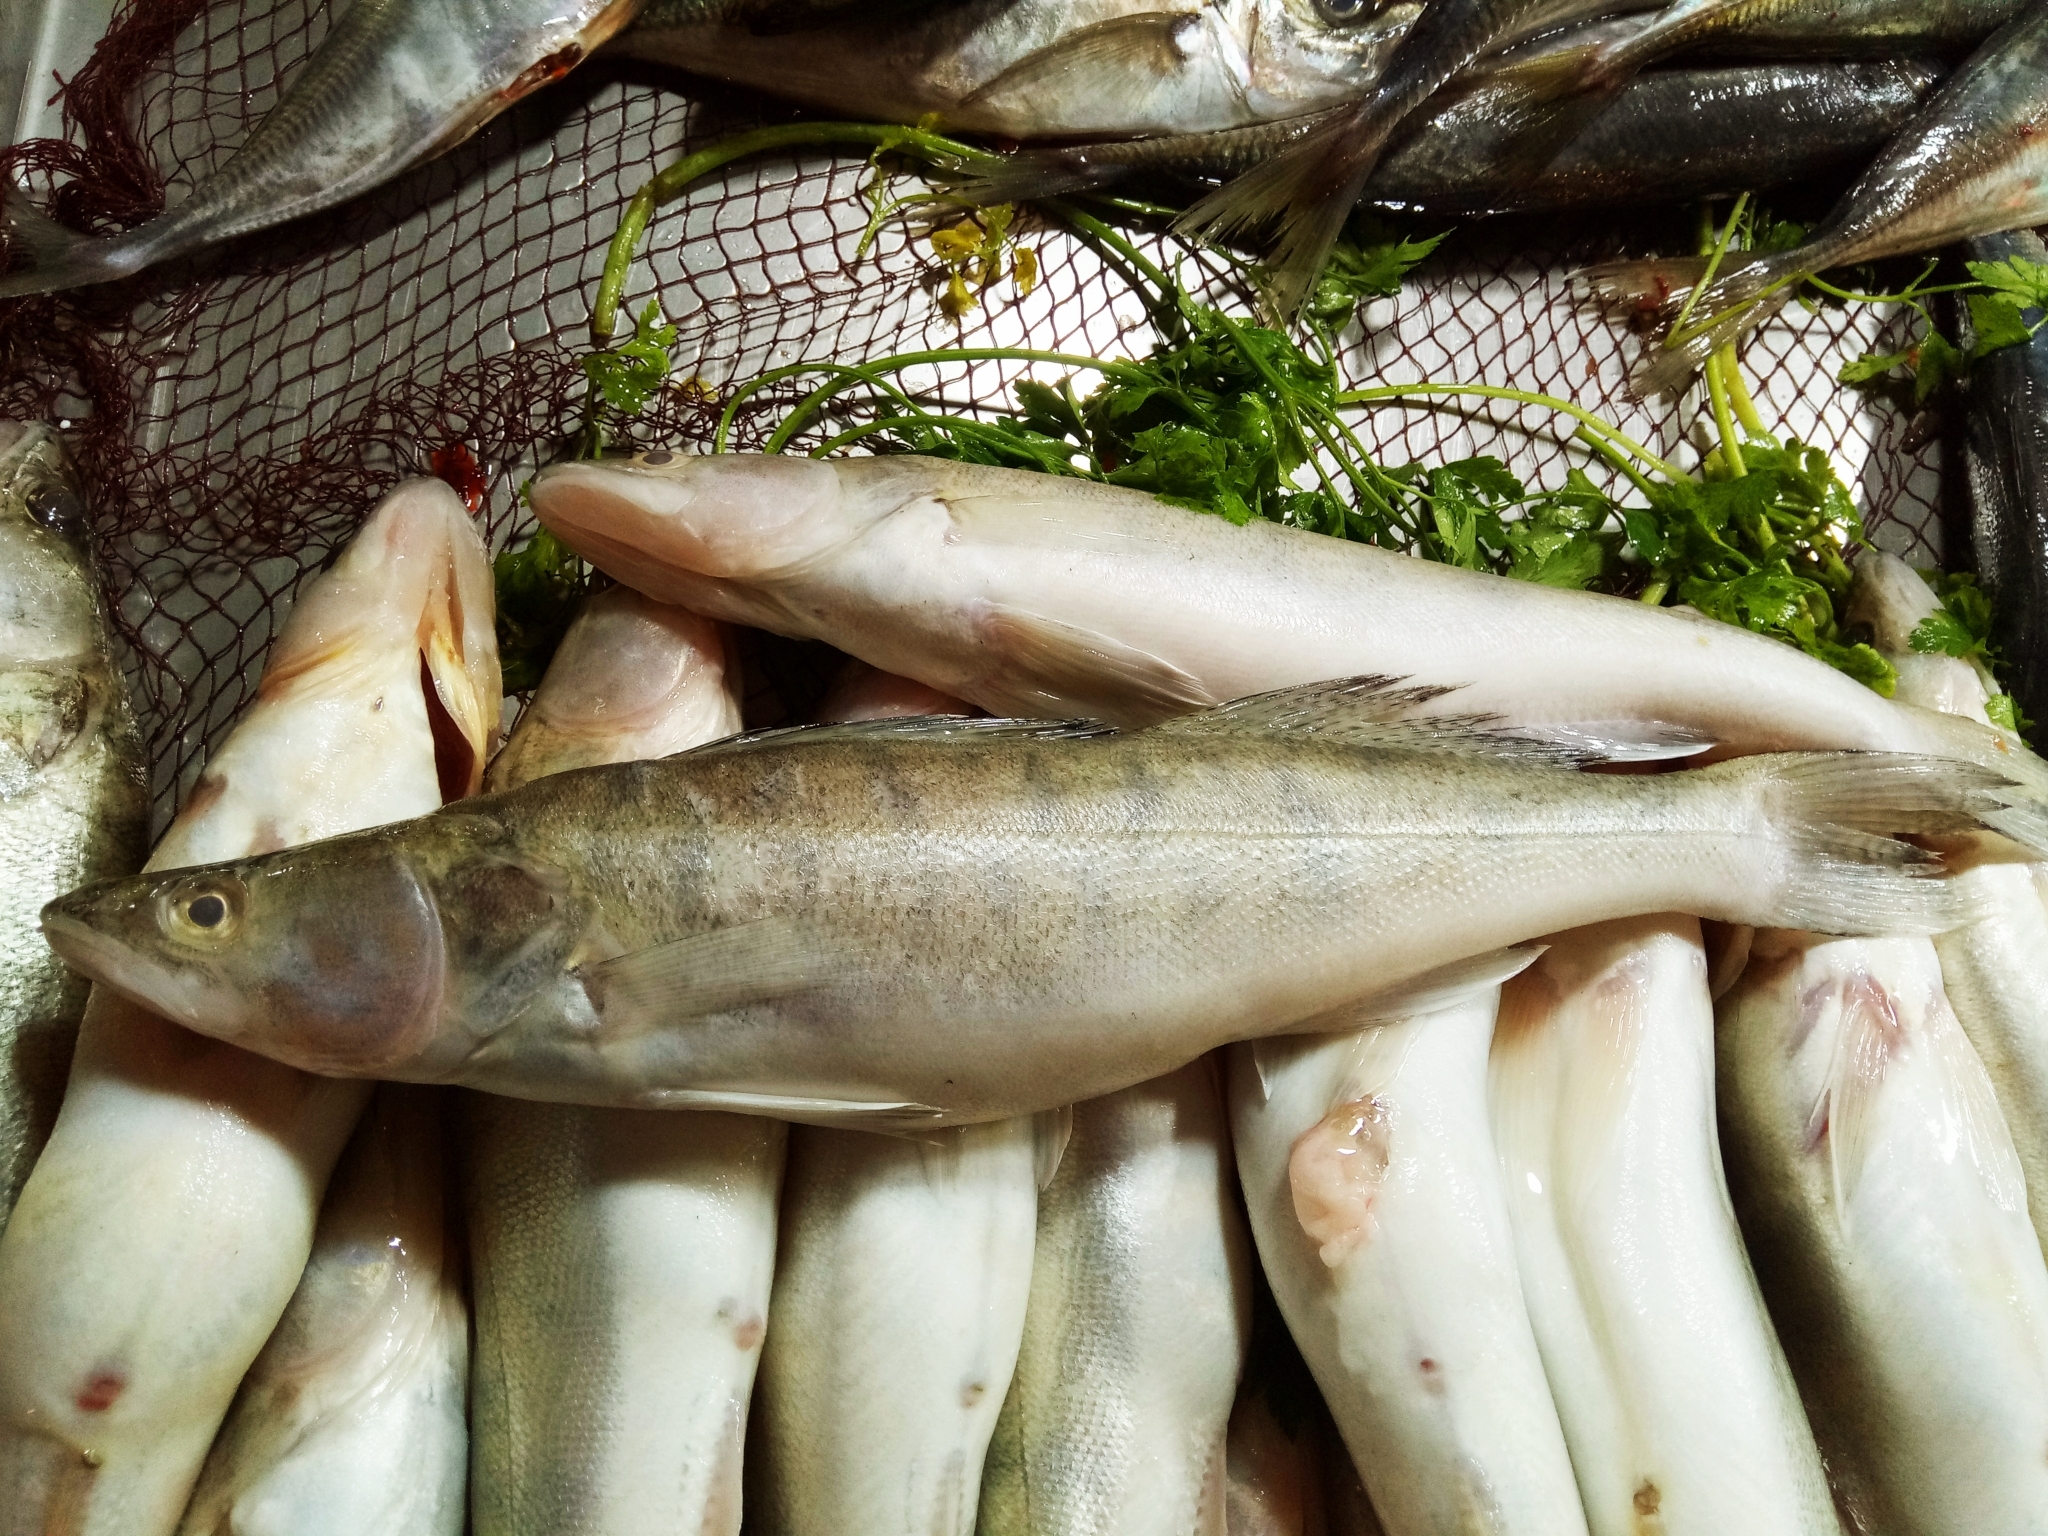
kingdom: Animalia
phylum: Chordata
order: Perciformes
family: Percidae
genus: Sander
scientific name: Sander lucioperca
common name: Pikeperch
